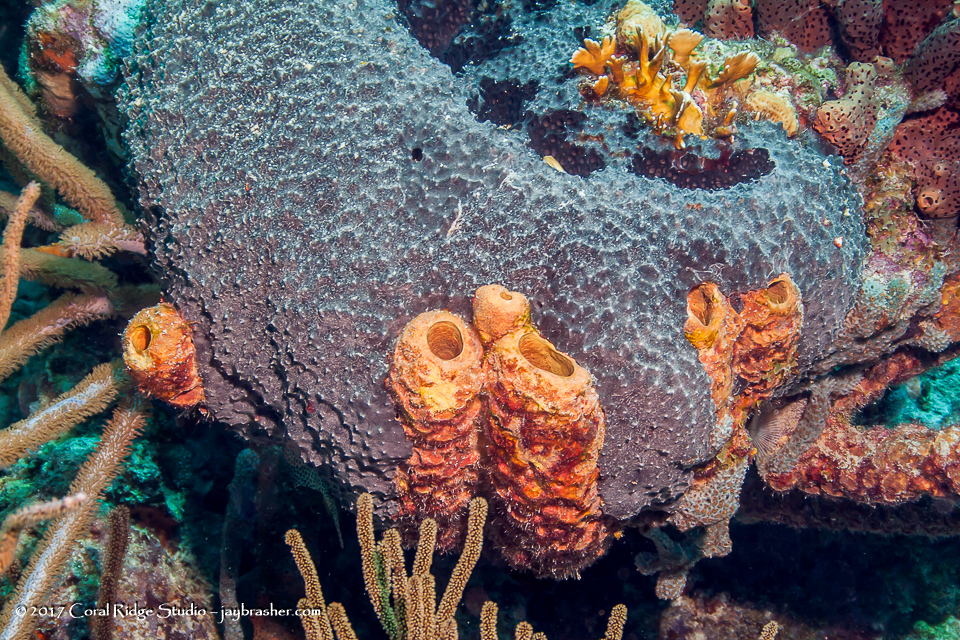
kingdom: Animalia
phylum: Porifera
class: Demospongiae
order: Verongiida
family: Aplysinidae
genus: Aplysina
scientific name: Aplysina archeri
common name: Stove-pipe sponge
